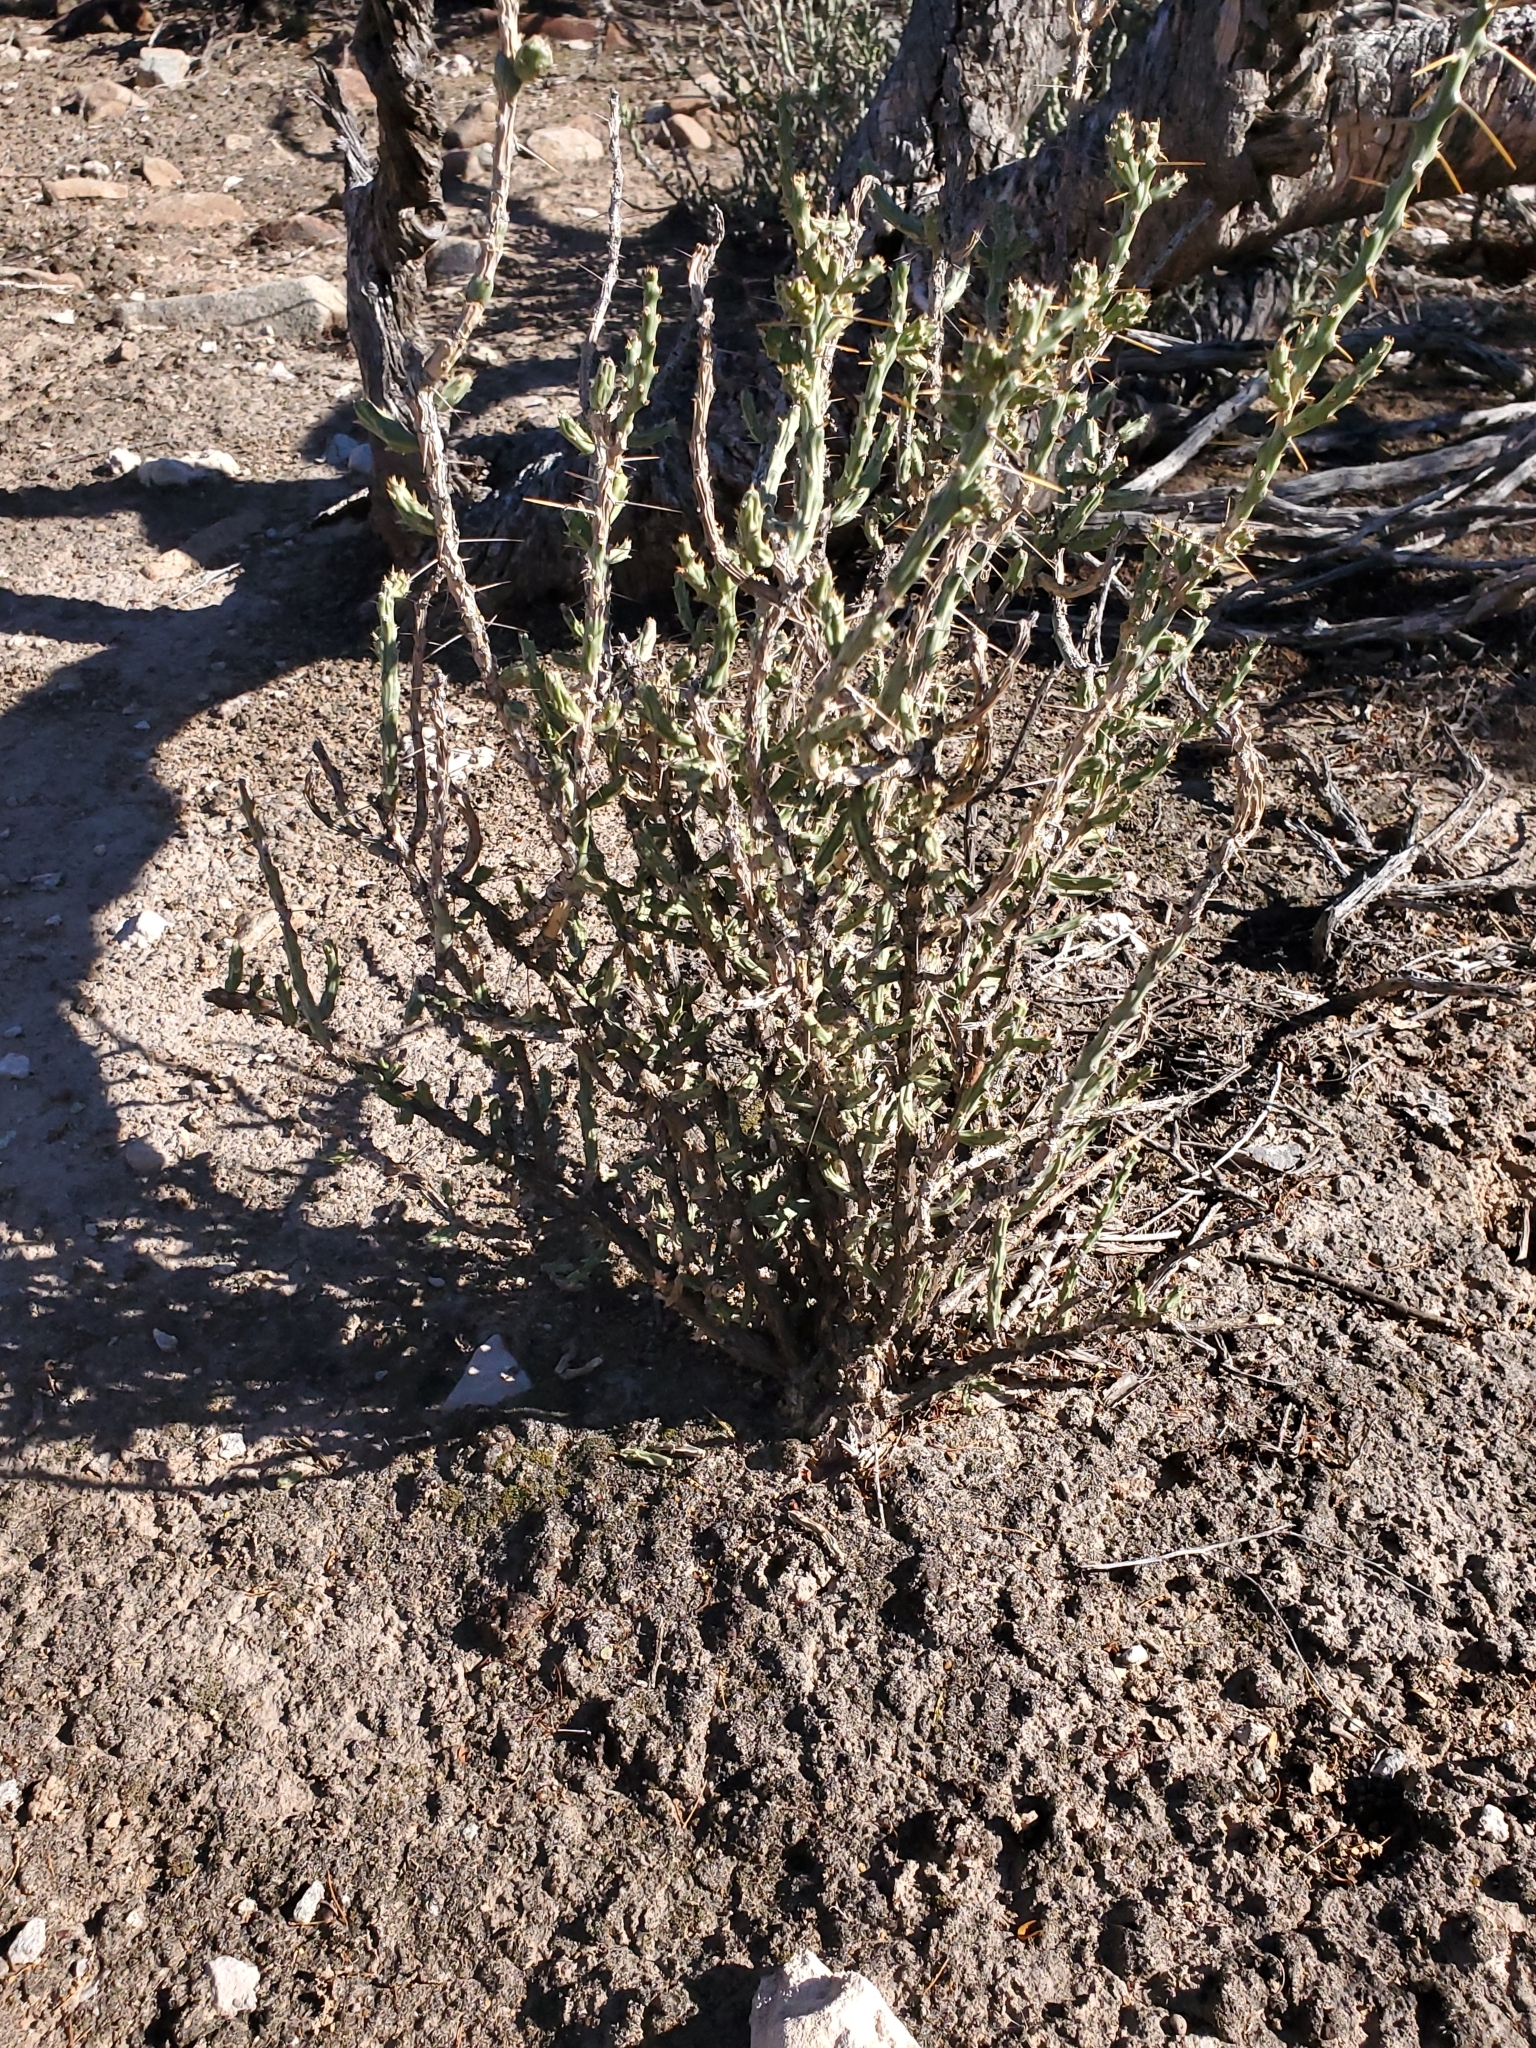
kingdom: Plantae
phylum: Tracheophyta
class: Magnoliopsida
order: Caryophyllales
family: Cactaceae
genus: Cylindropuntia
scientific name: Cylindropuntia leptocaulis
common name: Christmas cactus
